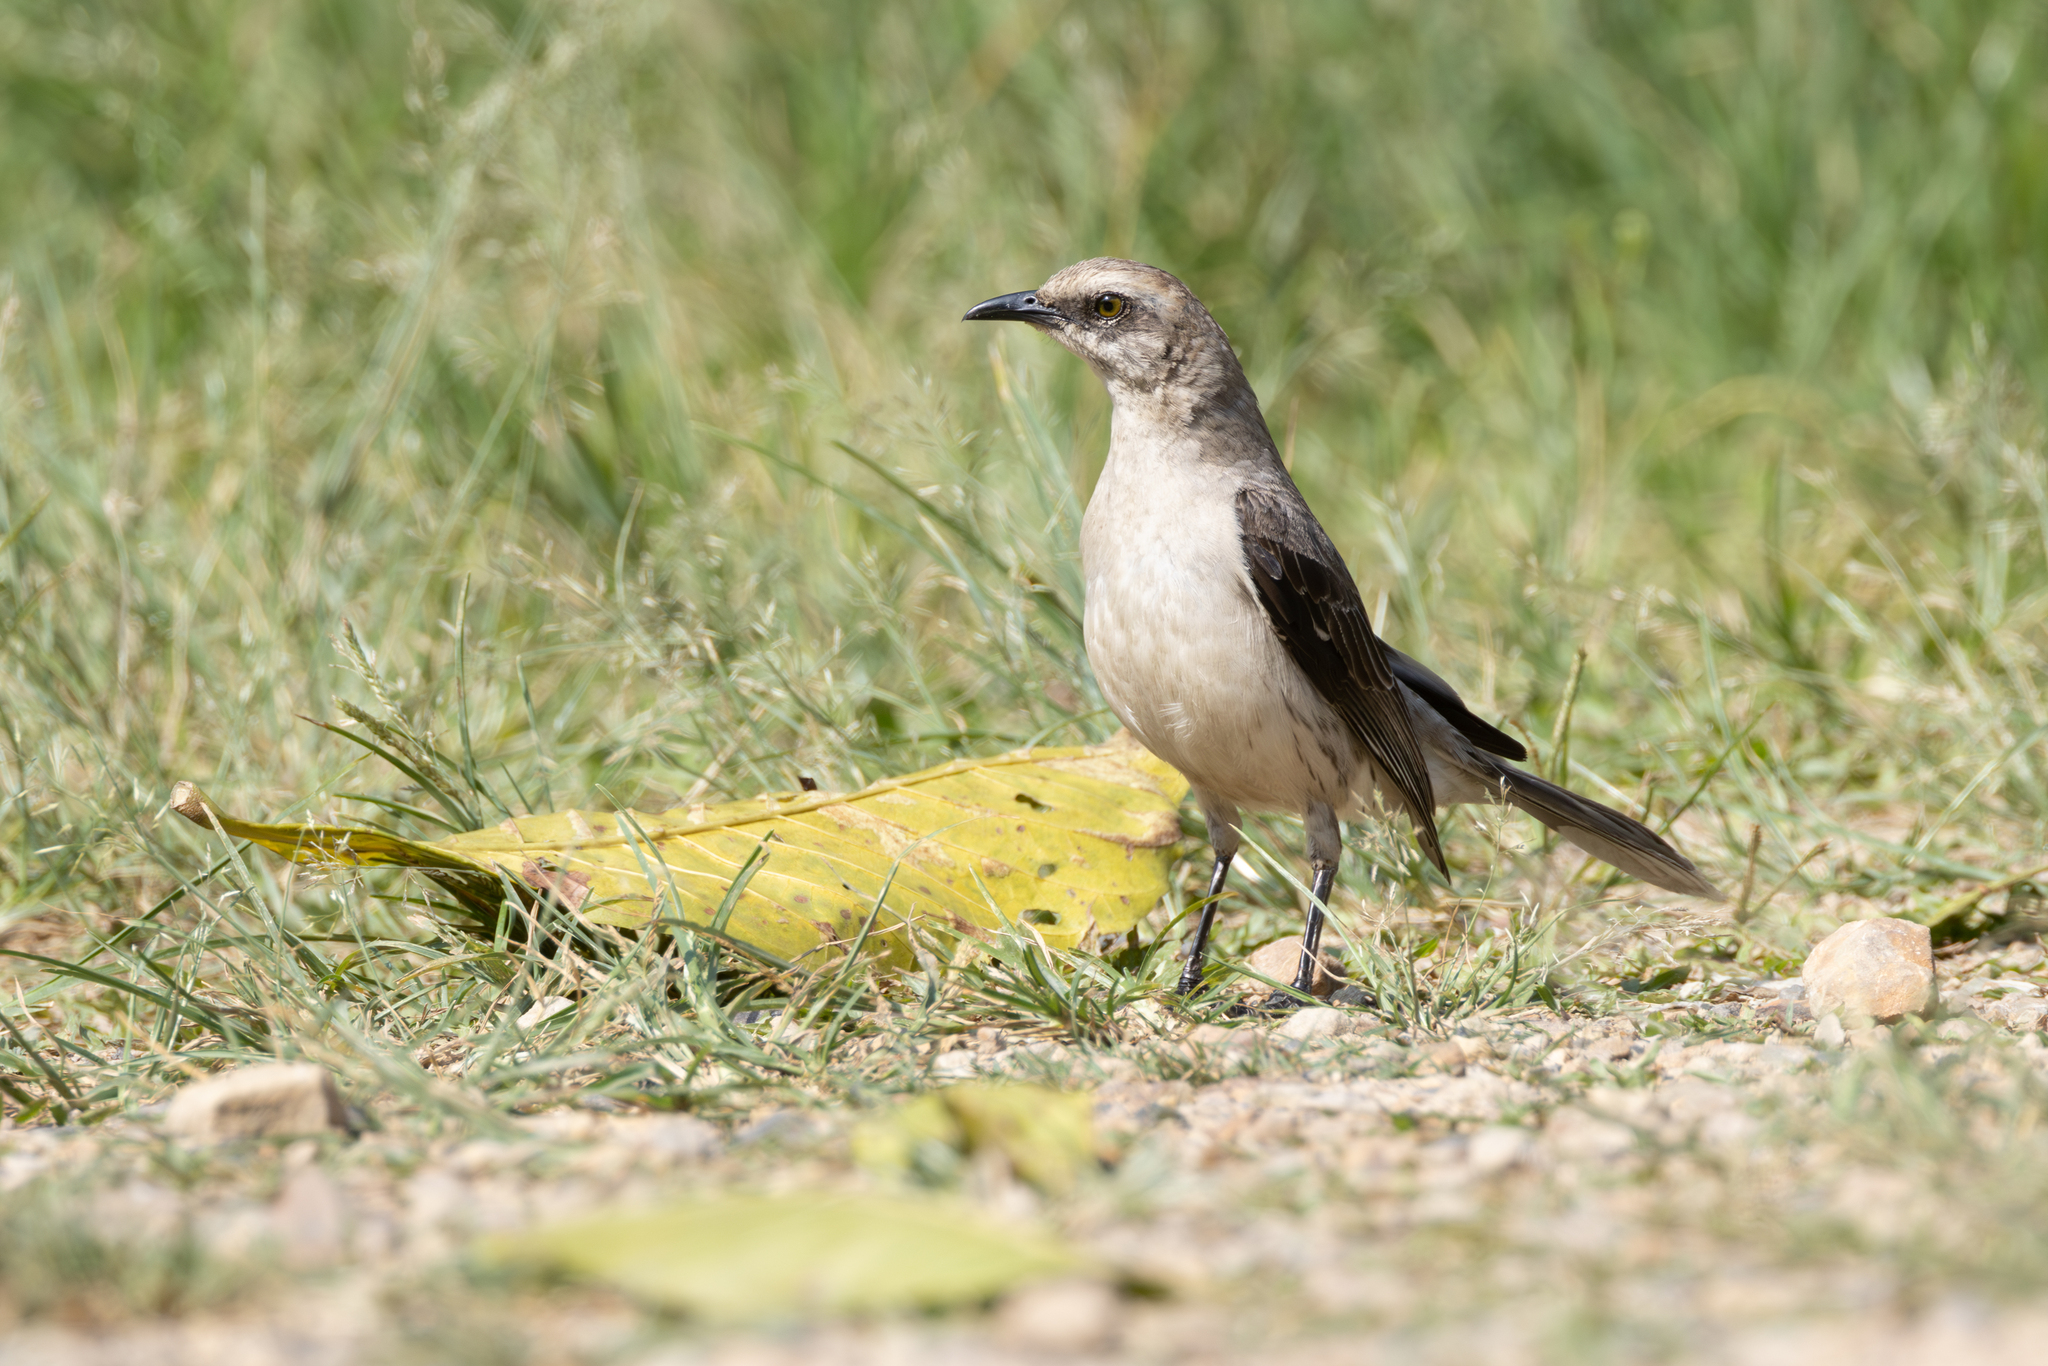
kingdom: Animalia
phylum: Chordata
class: Aves
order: Passeriformes
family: Mimidae
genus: Mimus
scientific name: Mimus gilvus
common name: Tropical mockingbird
